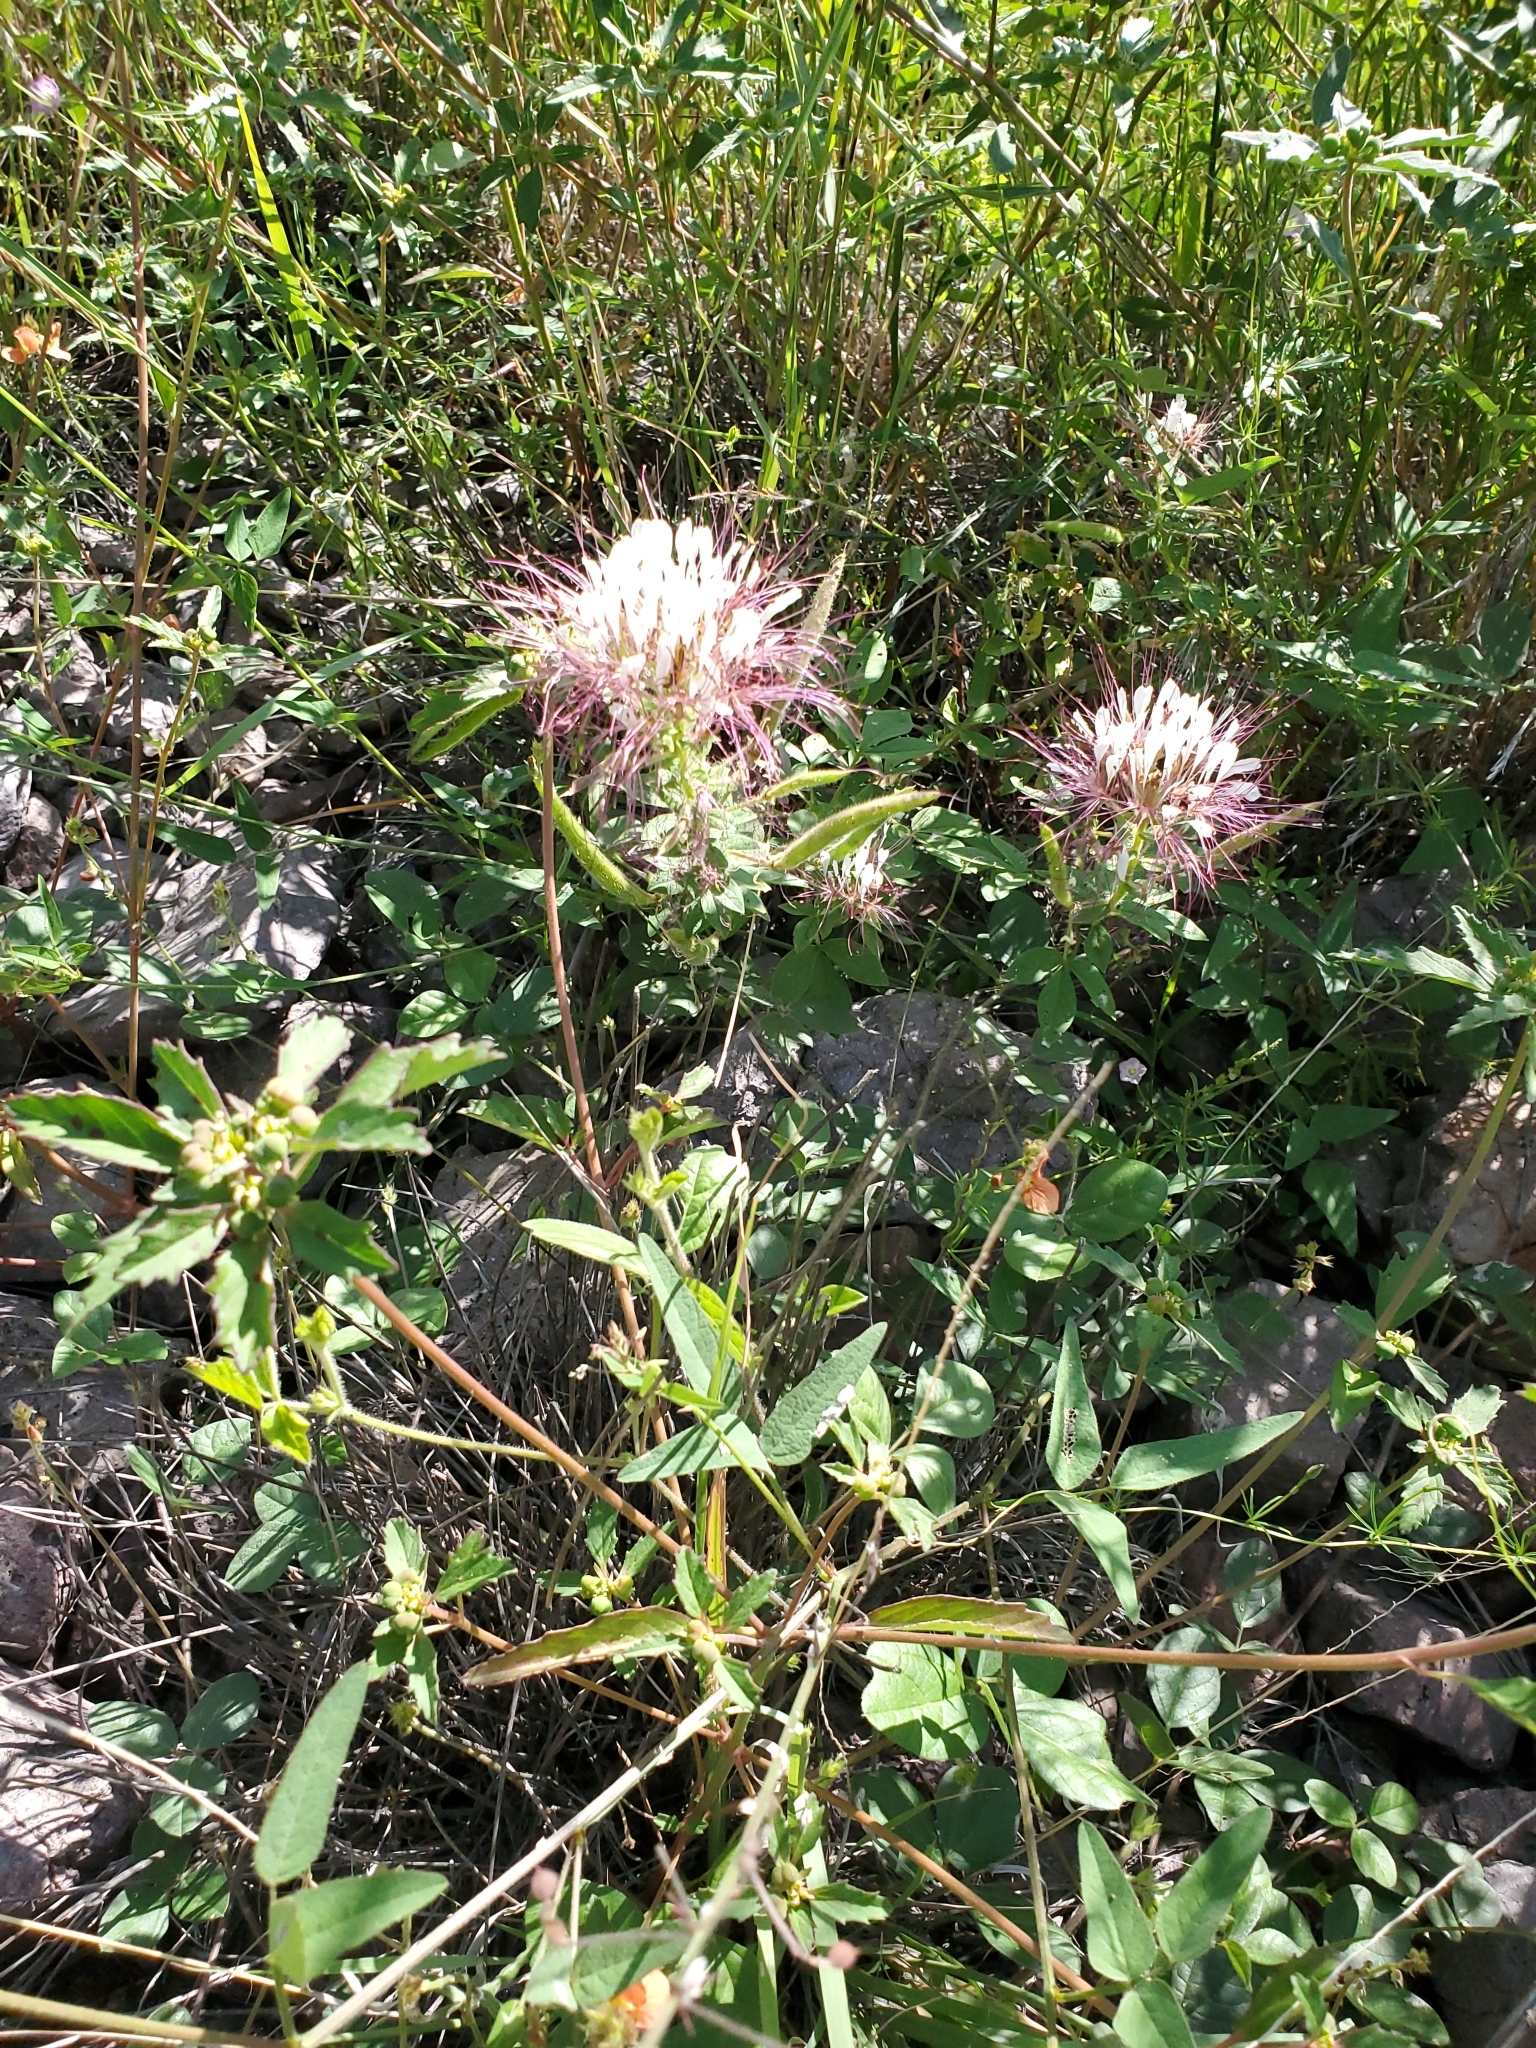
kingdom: Plantae
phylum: Tracheophyta
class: Magnoliopsida
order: Brassicales
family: Cleomaceae
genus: Polanisia
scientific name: Polanisia dodecandra
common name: Clammyweed
